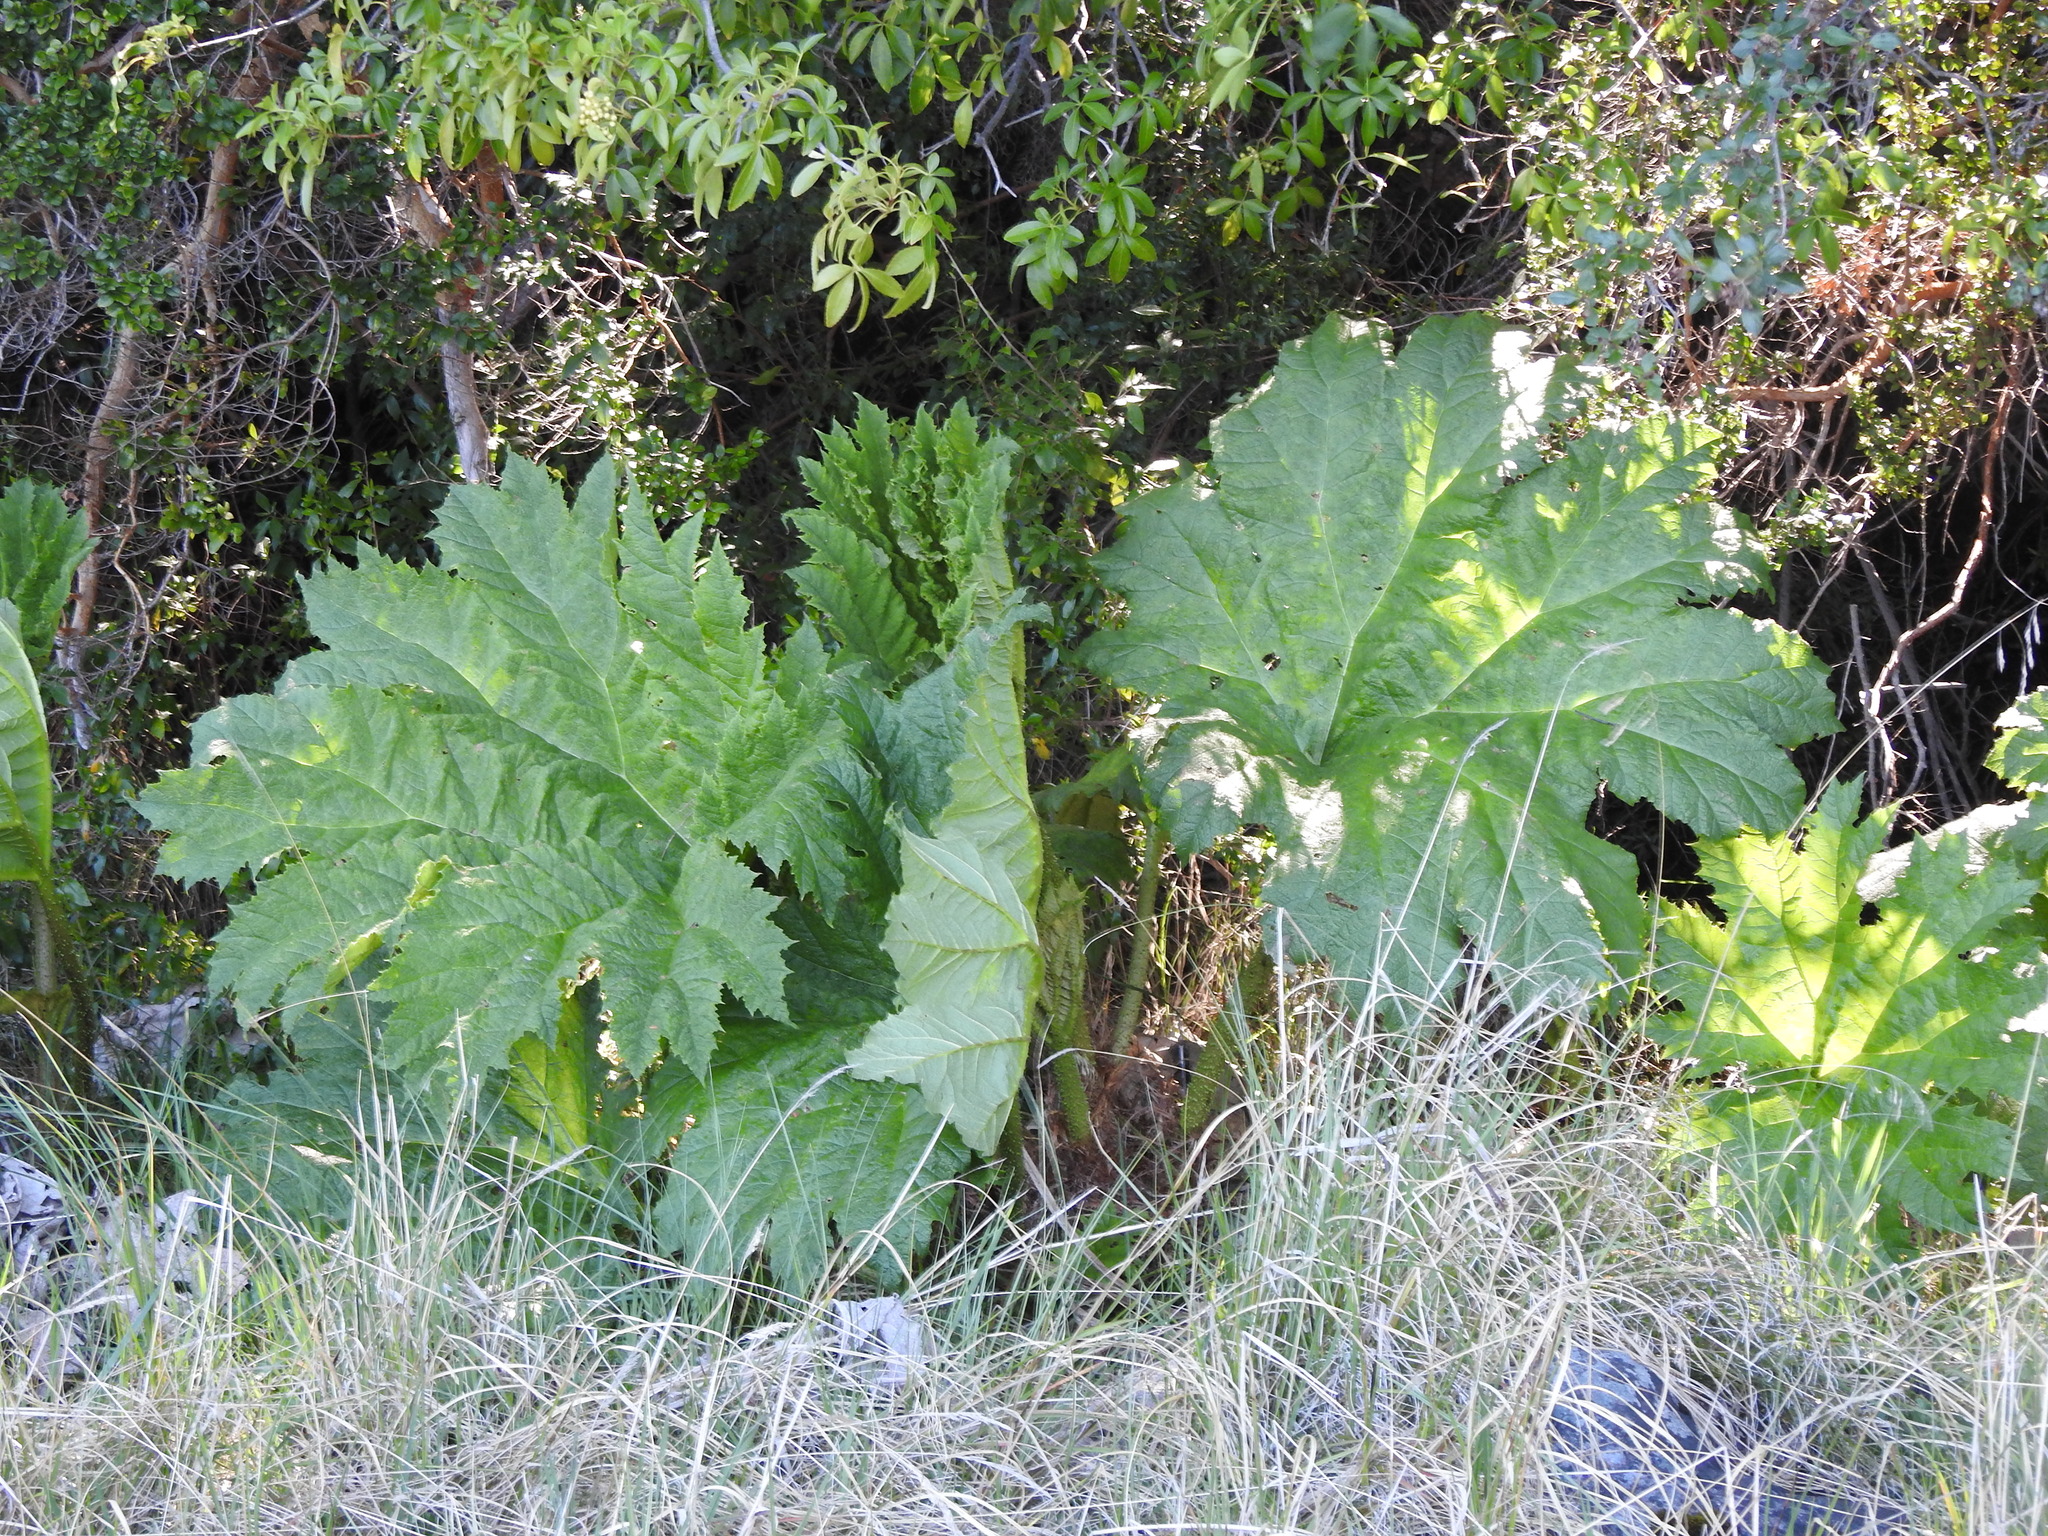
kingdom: Plantae
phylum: Tracheophyta
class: Magnoliopsida
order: Gunnerales
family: Gunneraceae
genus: Gunnera
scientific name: Gunnera tinctoria
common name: Giant-rhubarb
